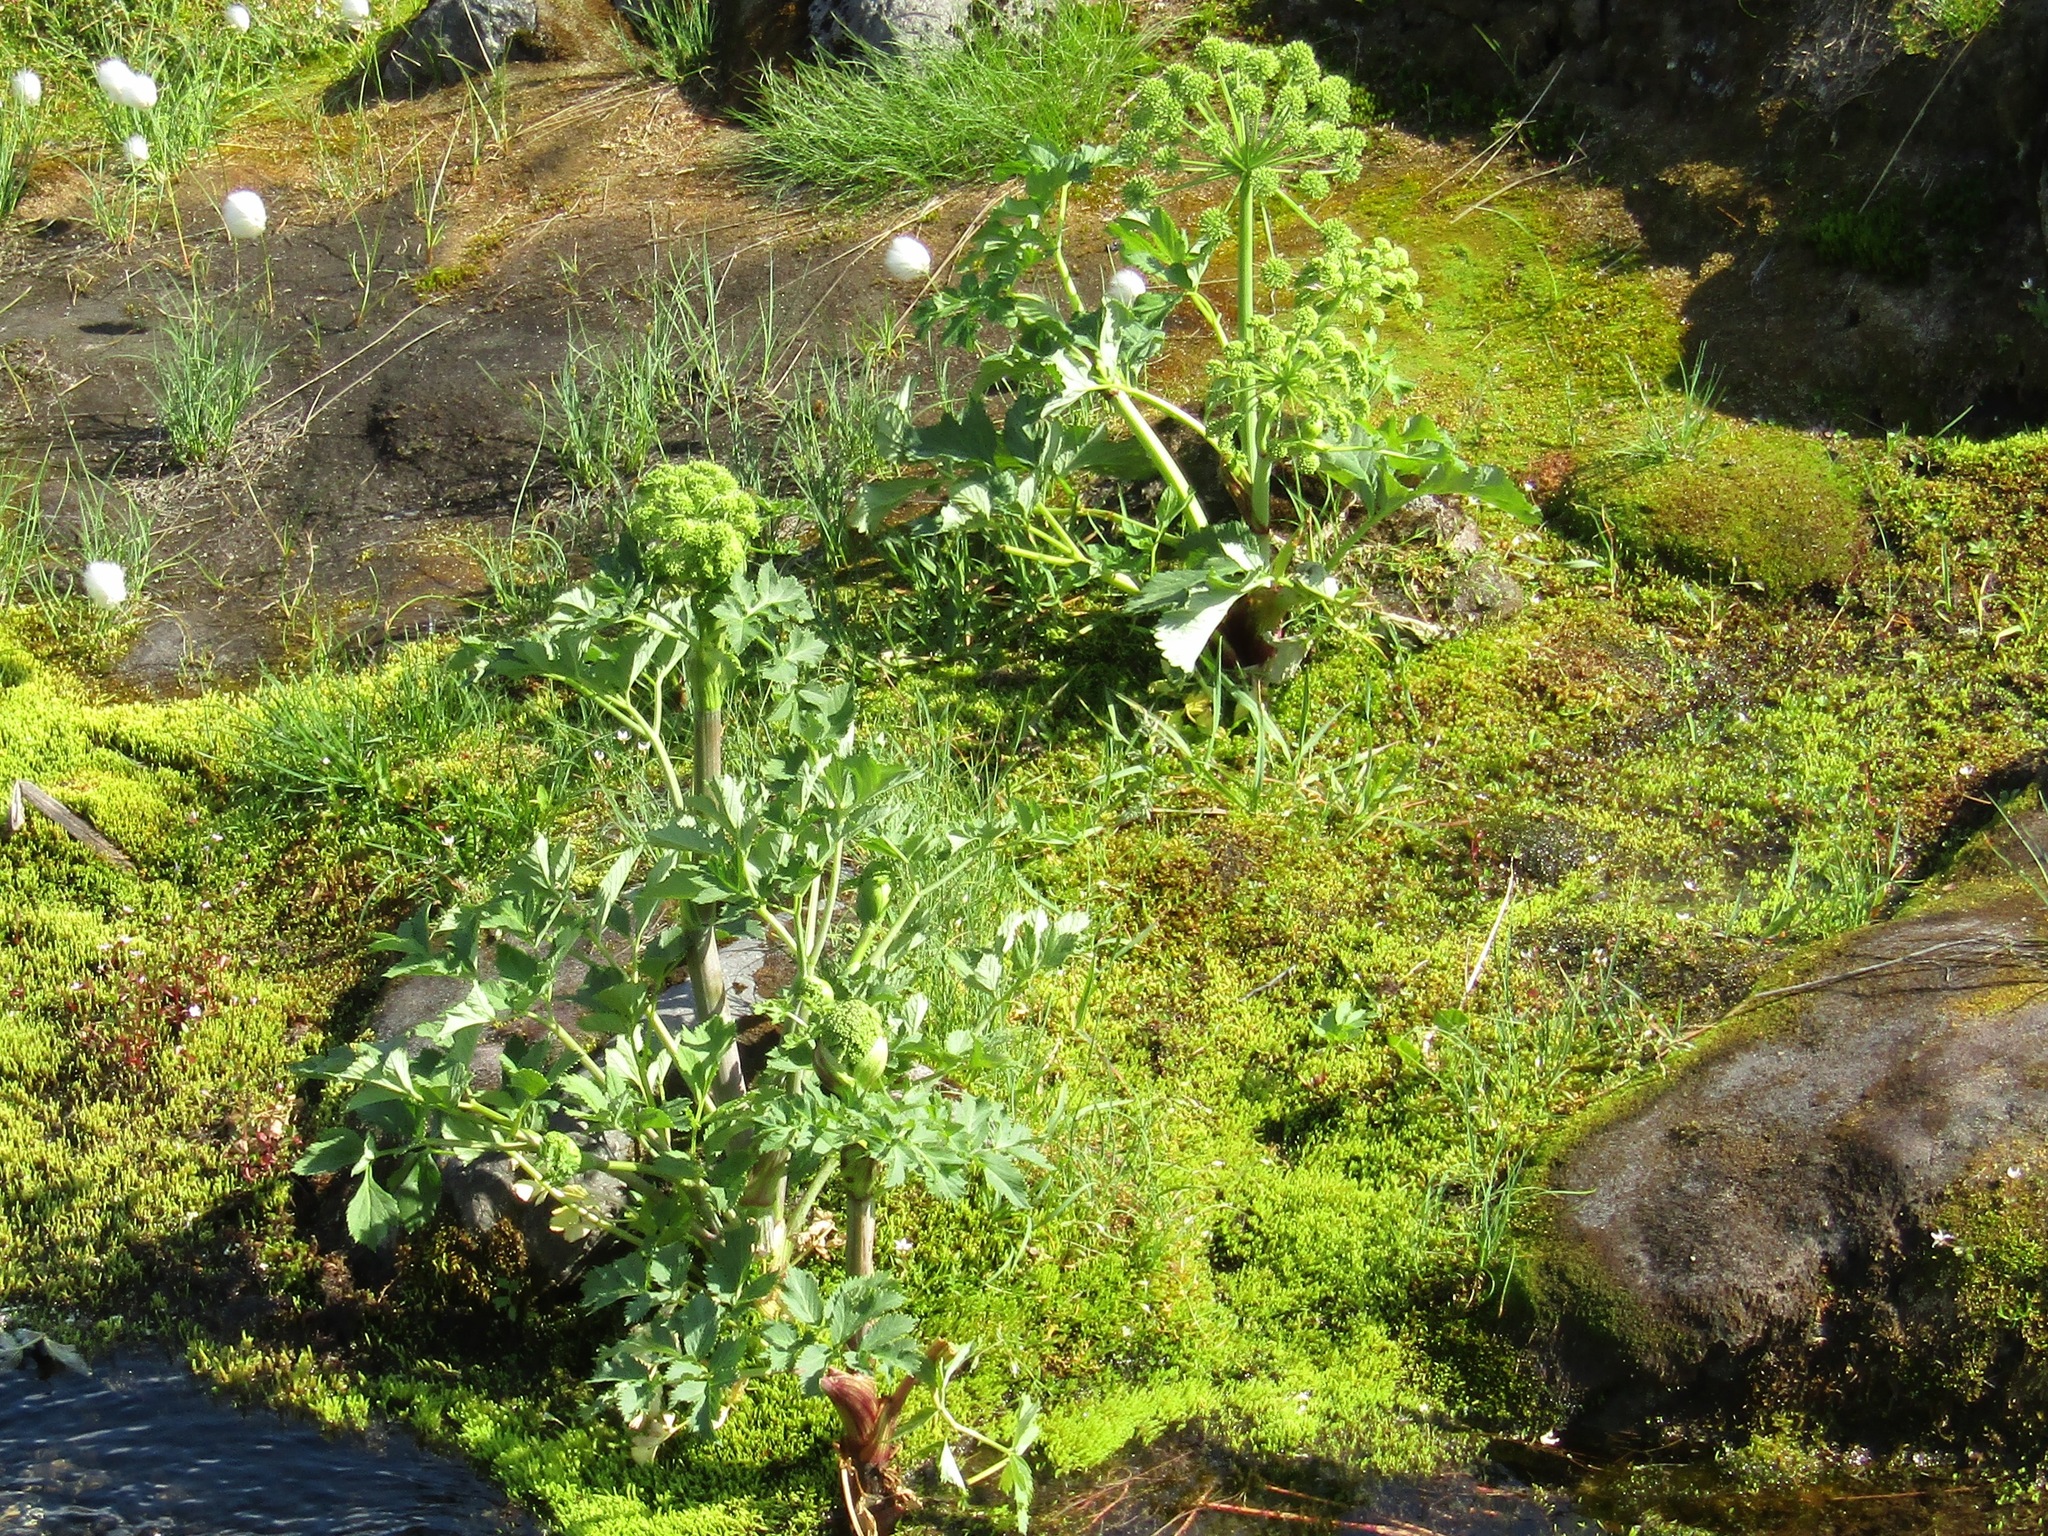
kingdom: Plantae
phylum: Tracheophyta
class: Magnoliopsida
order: Apiales
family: Apiaceae
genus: Angelica
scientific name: Angelica archangelica
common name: Garden angelica
